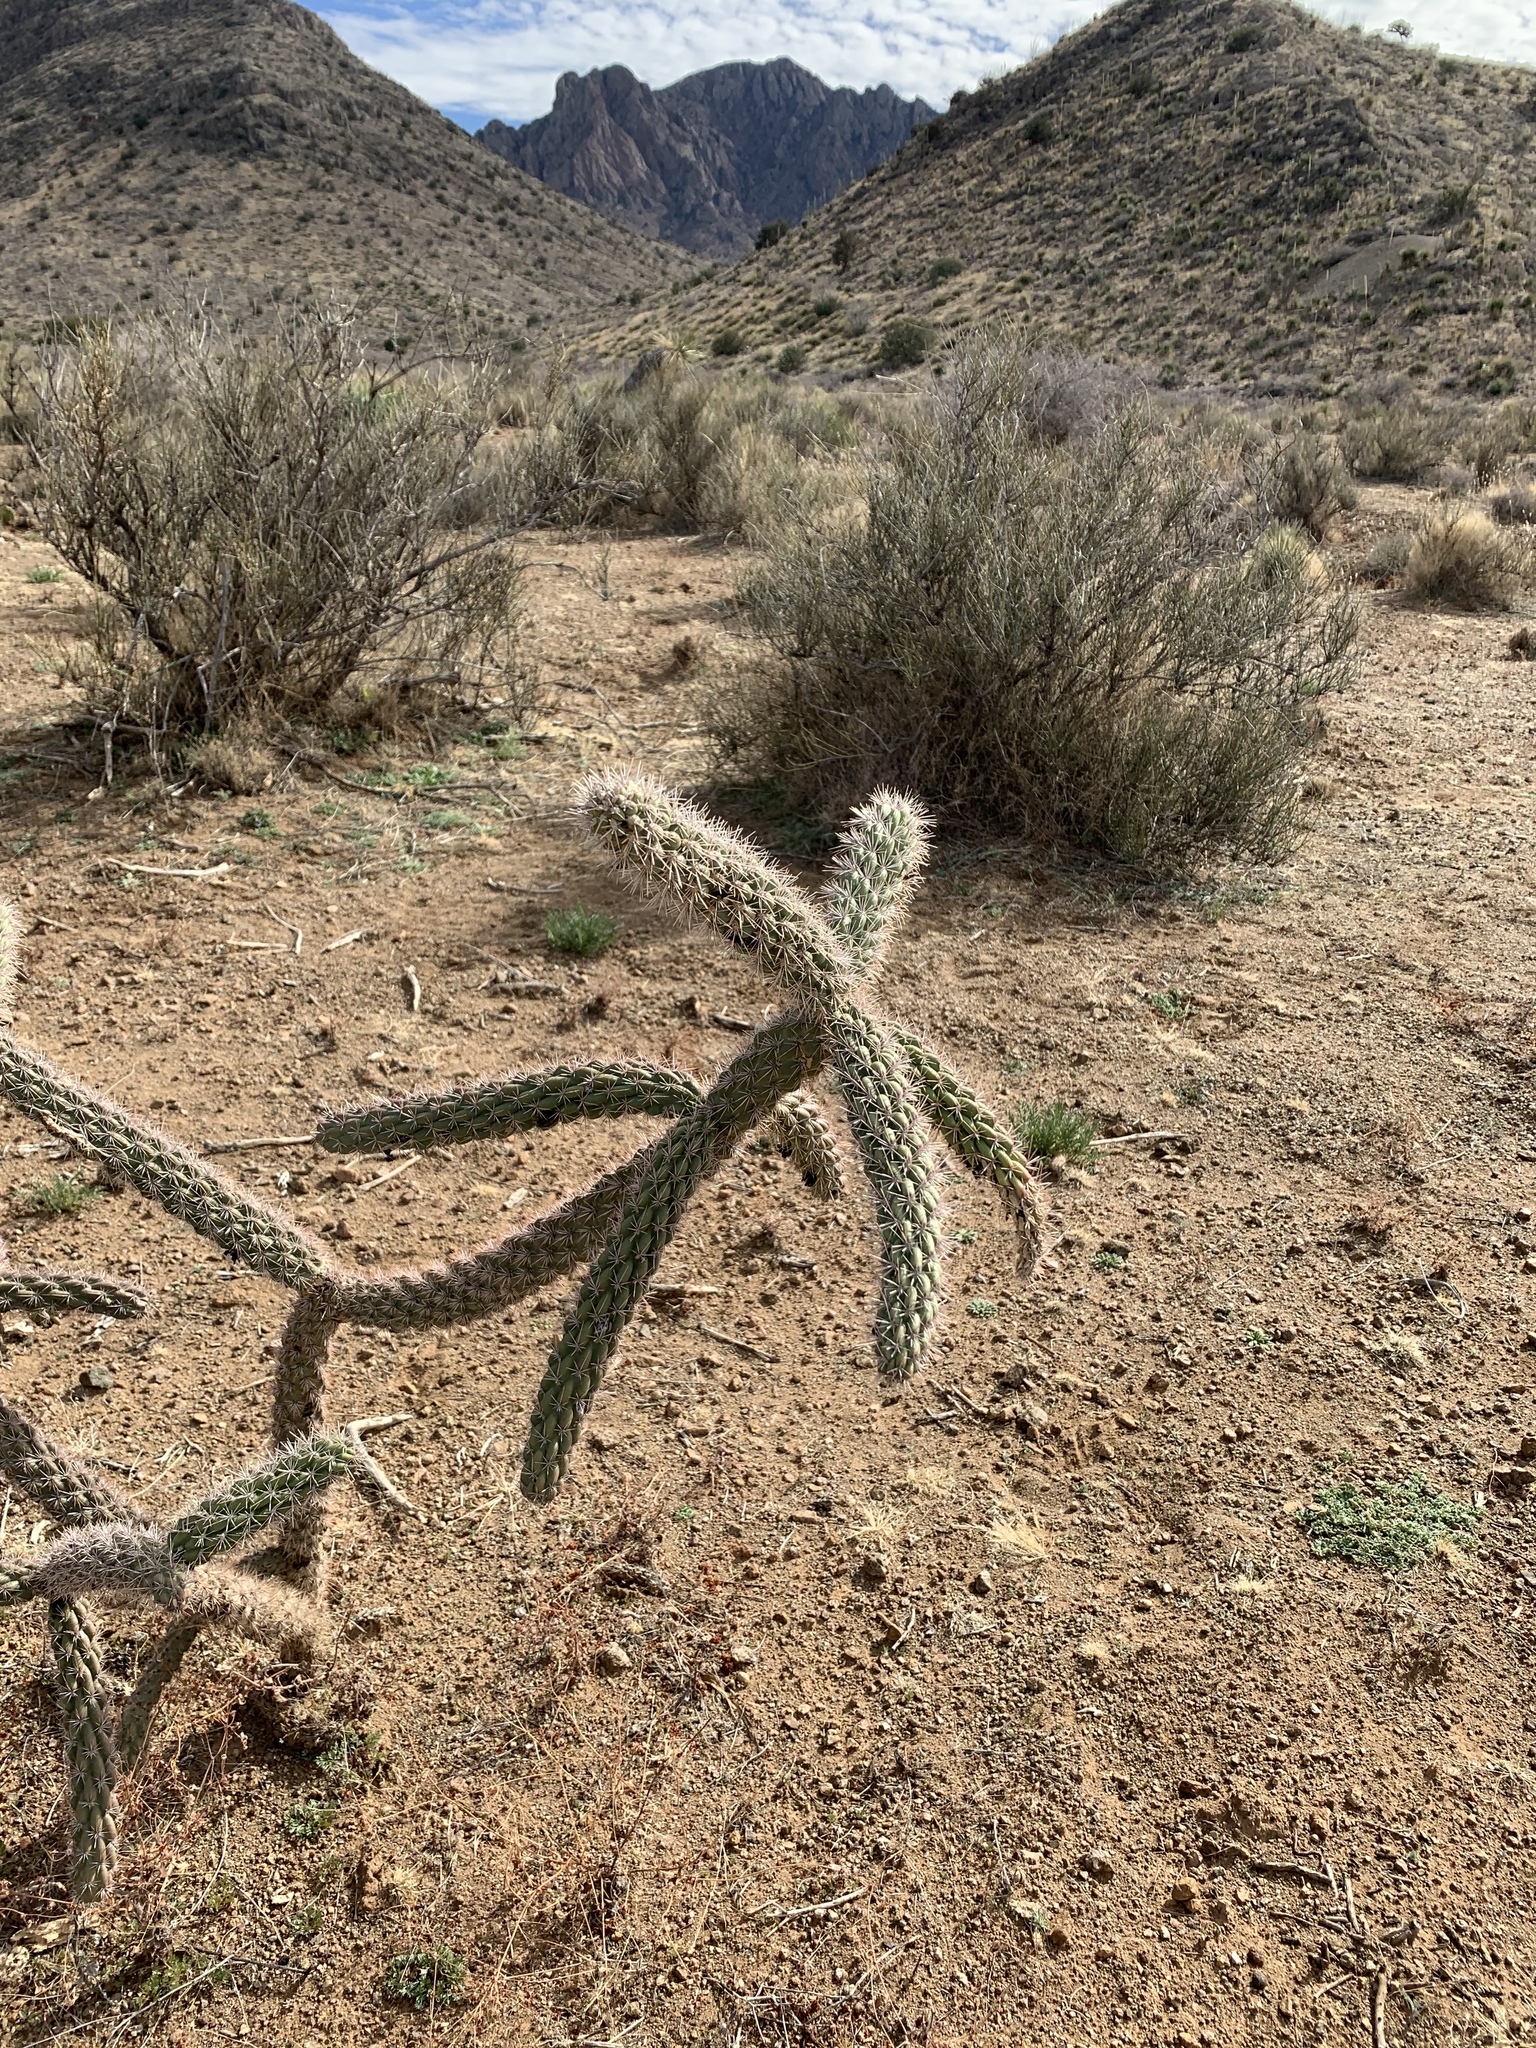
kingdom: Plantae
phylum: Tracheophyta
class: Magnoliopsida
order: Caryophyllales
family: Cactaceae
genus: Cylindropuntia
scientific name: Cylindropuntia imbricata
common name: Candelabrum cactus
